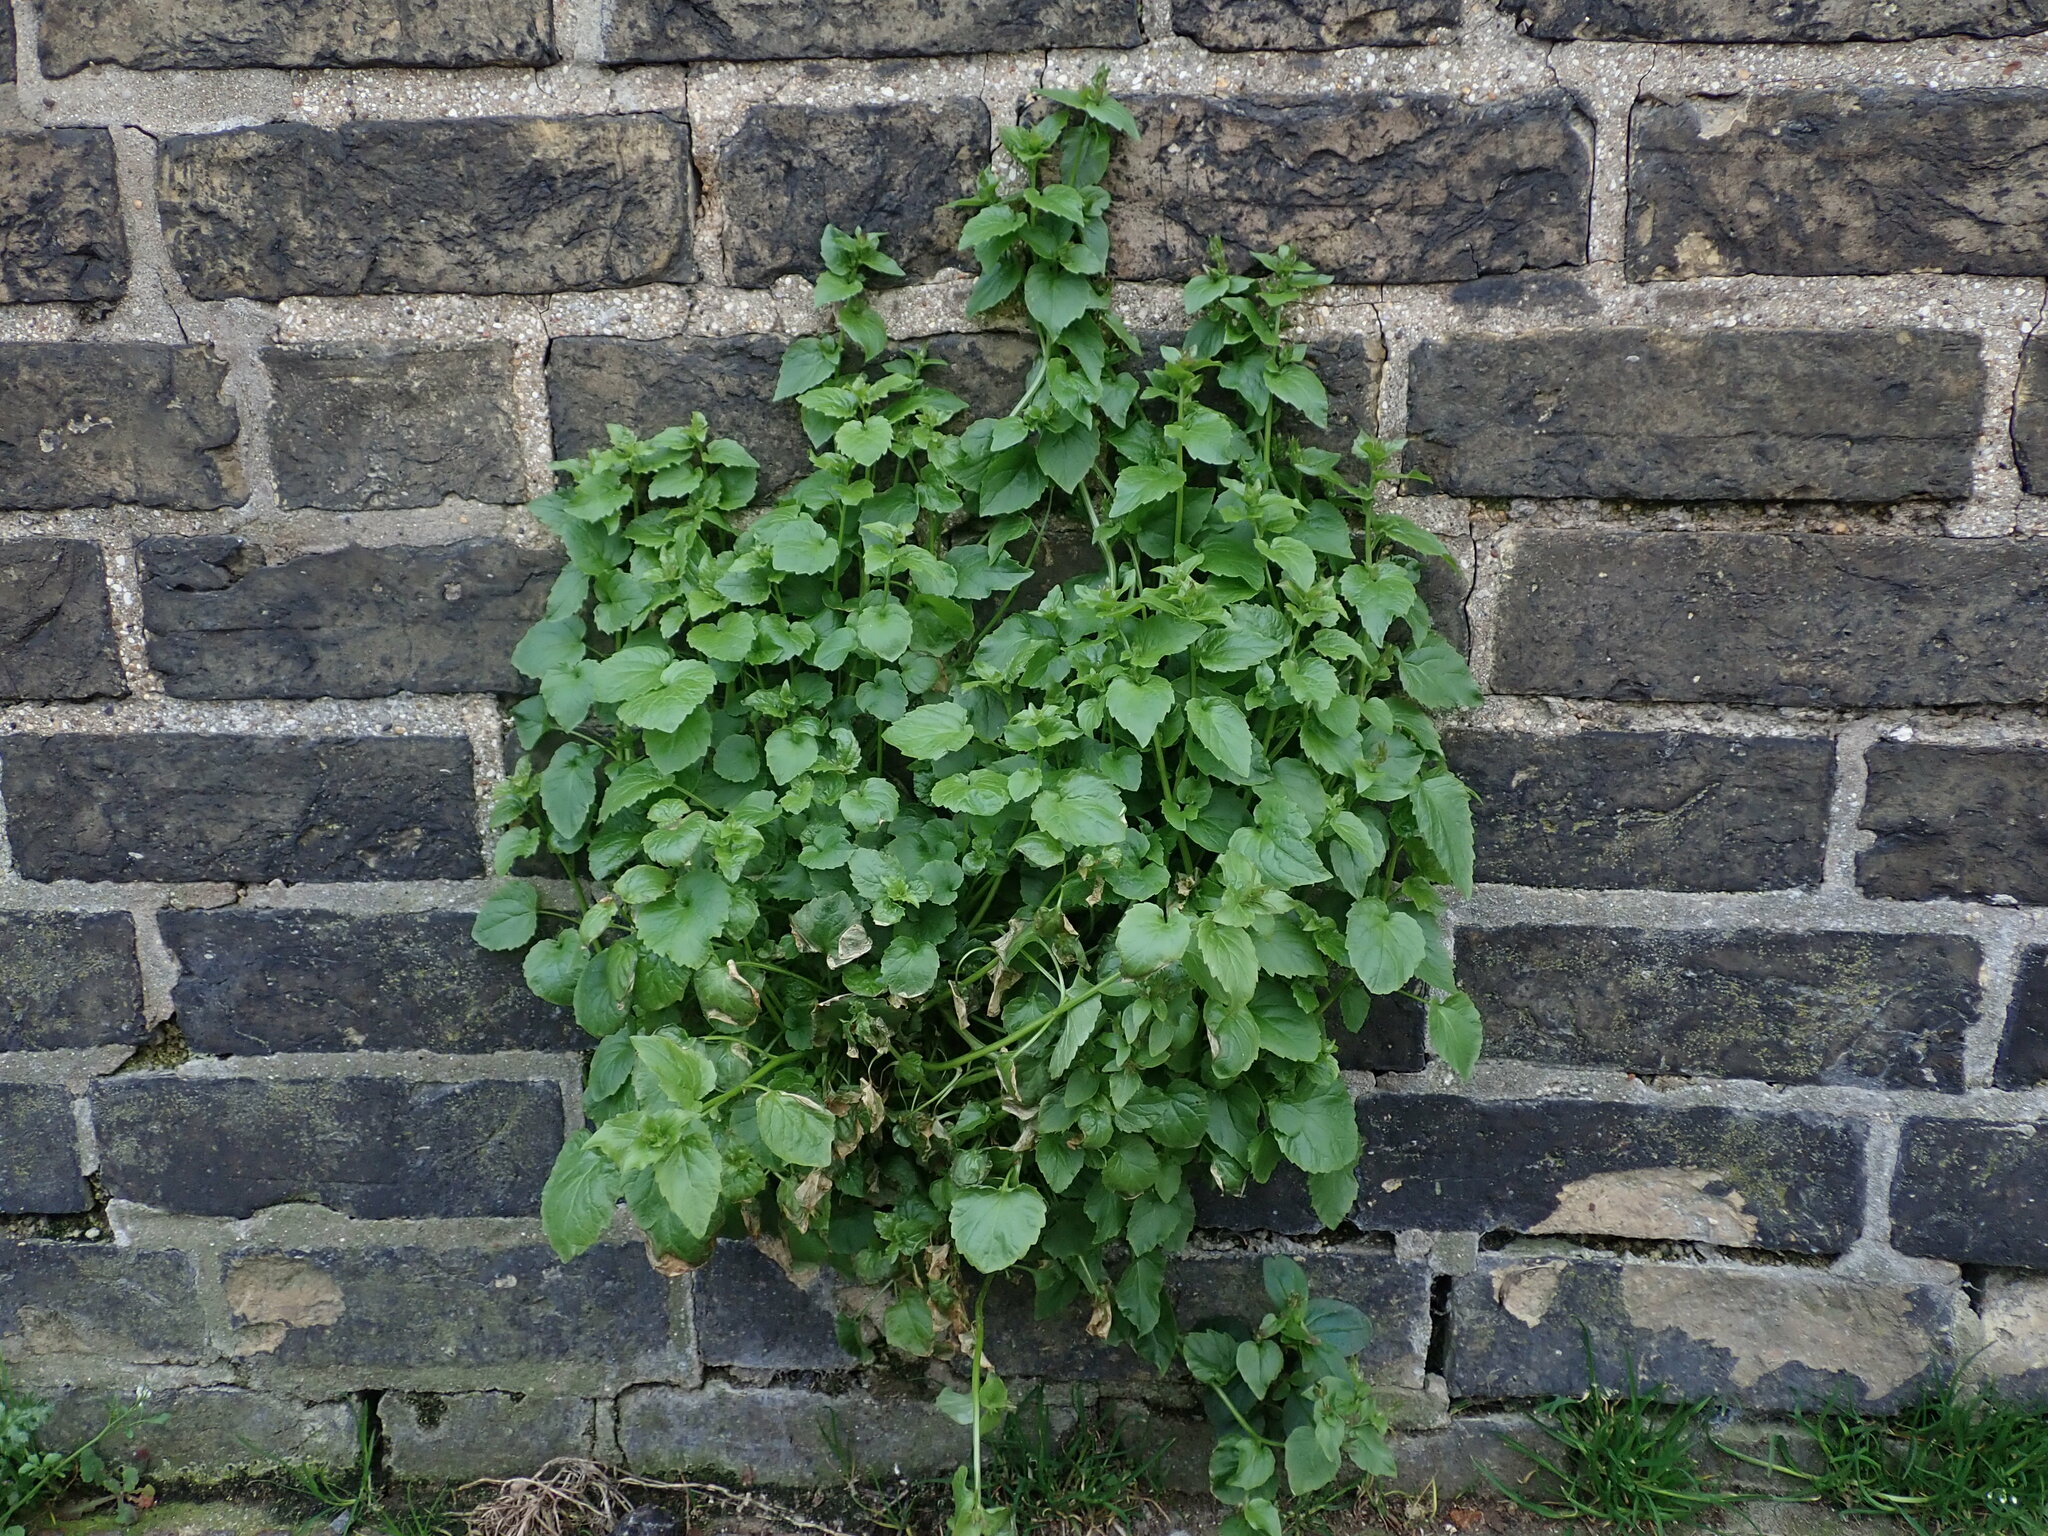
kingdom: Plantae
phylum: Tracheophyta
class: Magnoliopsida
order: Asterales
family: Campanulaceae
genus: Campanula
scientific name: Campanula poscharskyana
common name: Trailing bellflower
